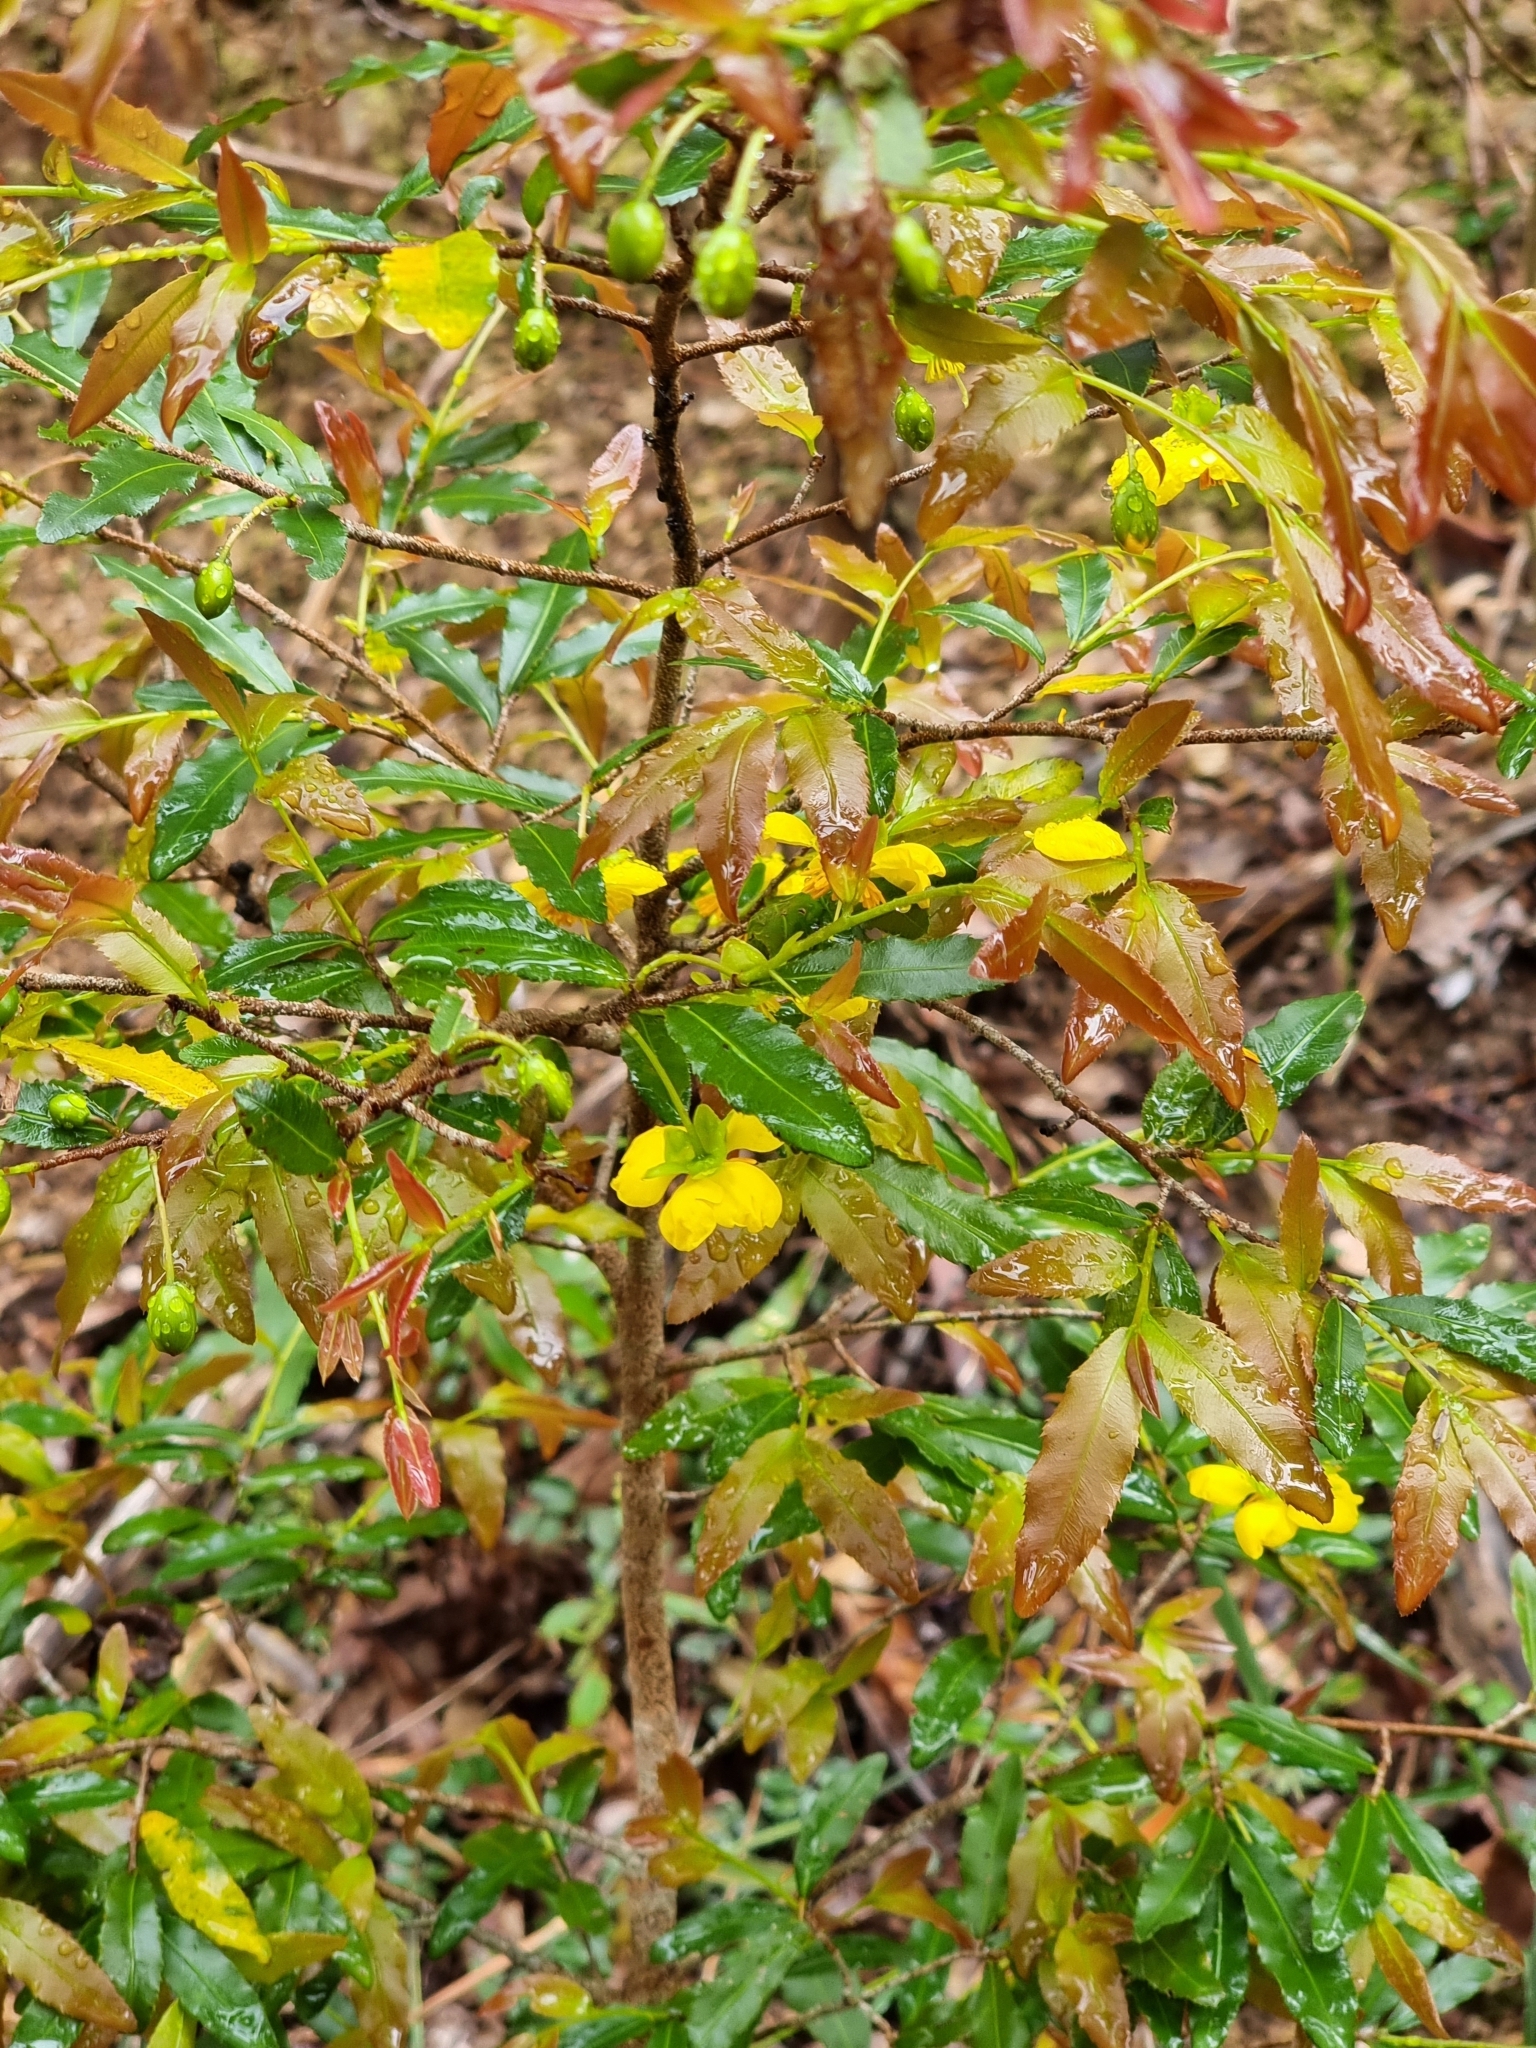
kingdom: Plantae
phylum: Tracheophyta
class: Magnoliopsida
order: Malpighiales
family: Ochnaceae
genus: Ochna
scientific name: Ochna serrulata
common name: Mickey mouse plant
